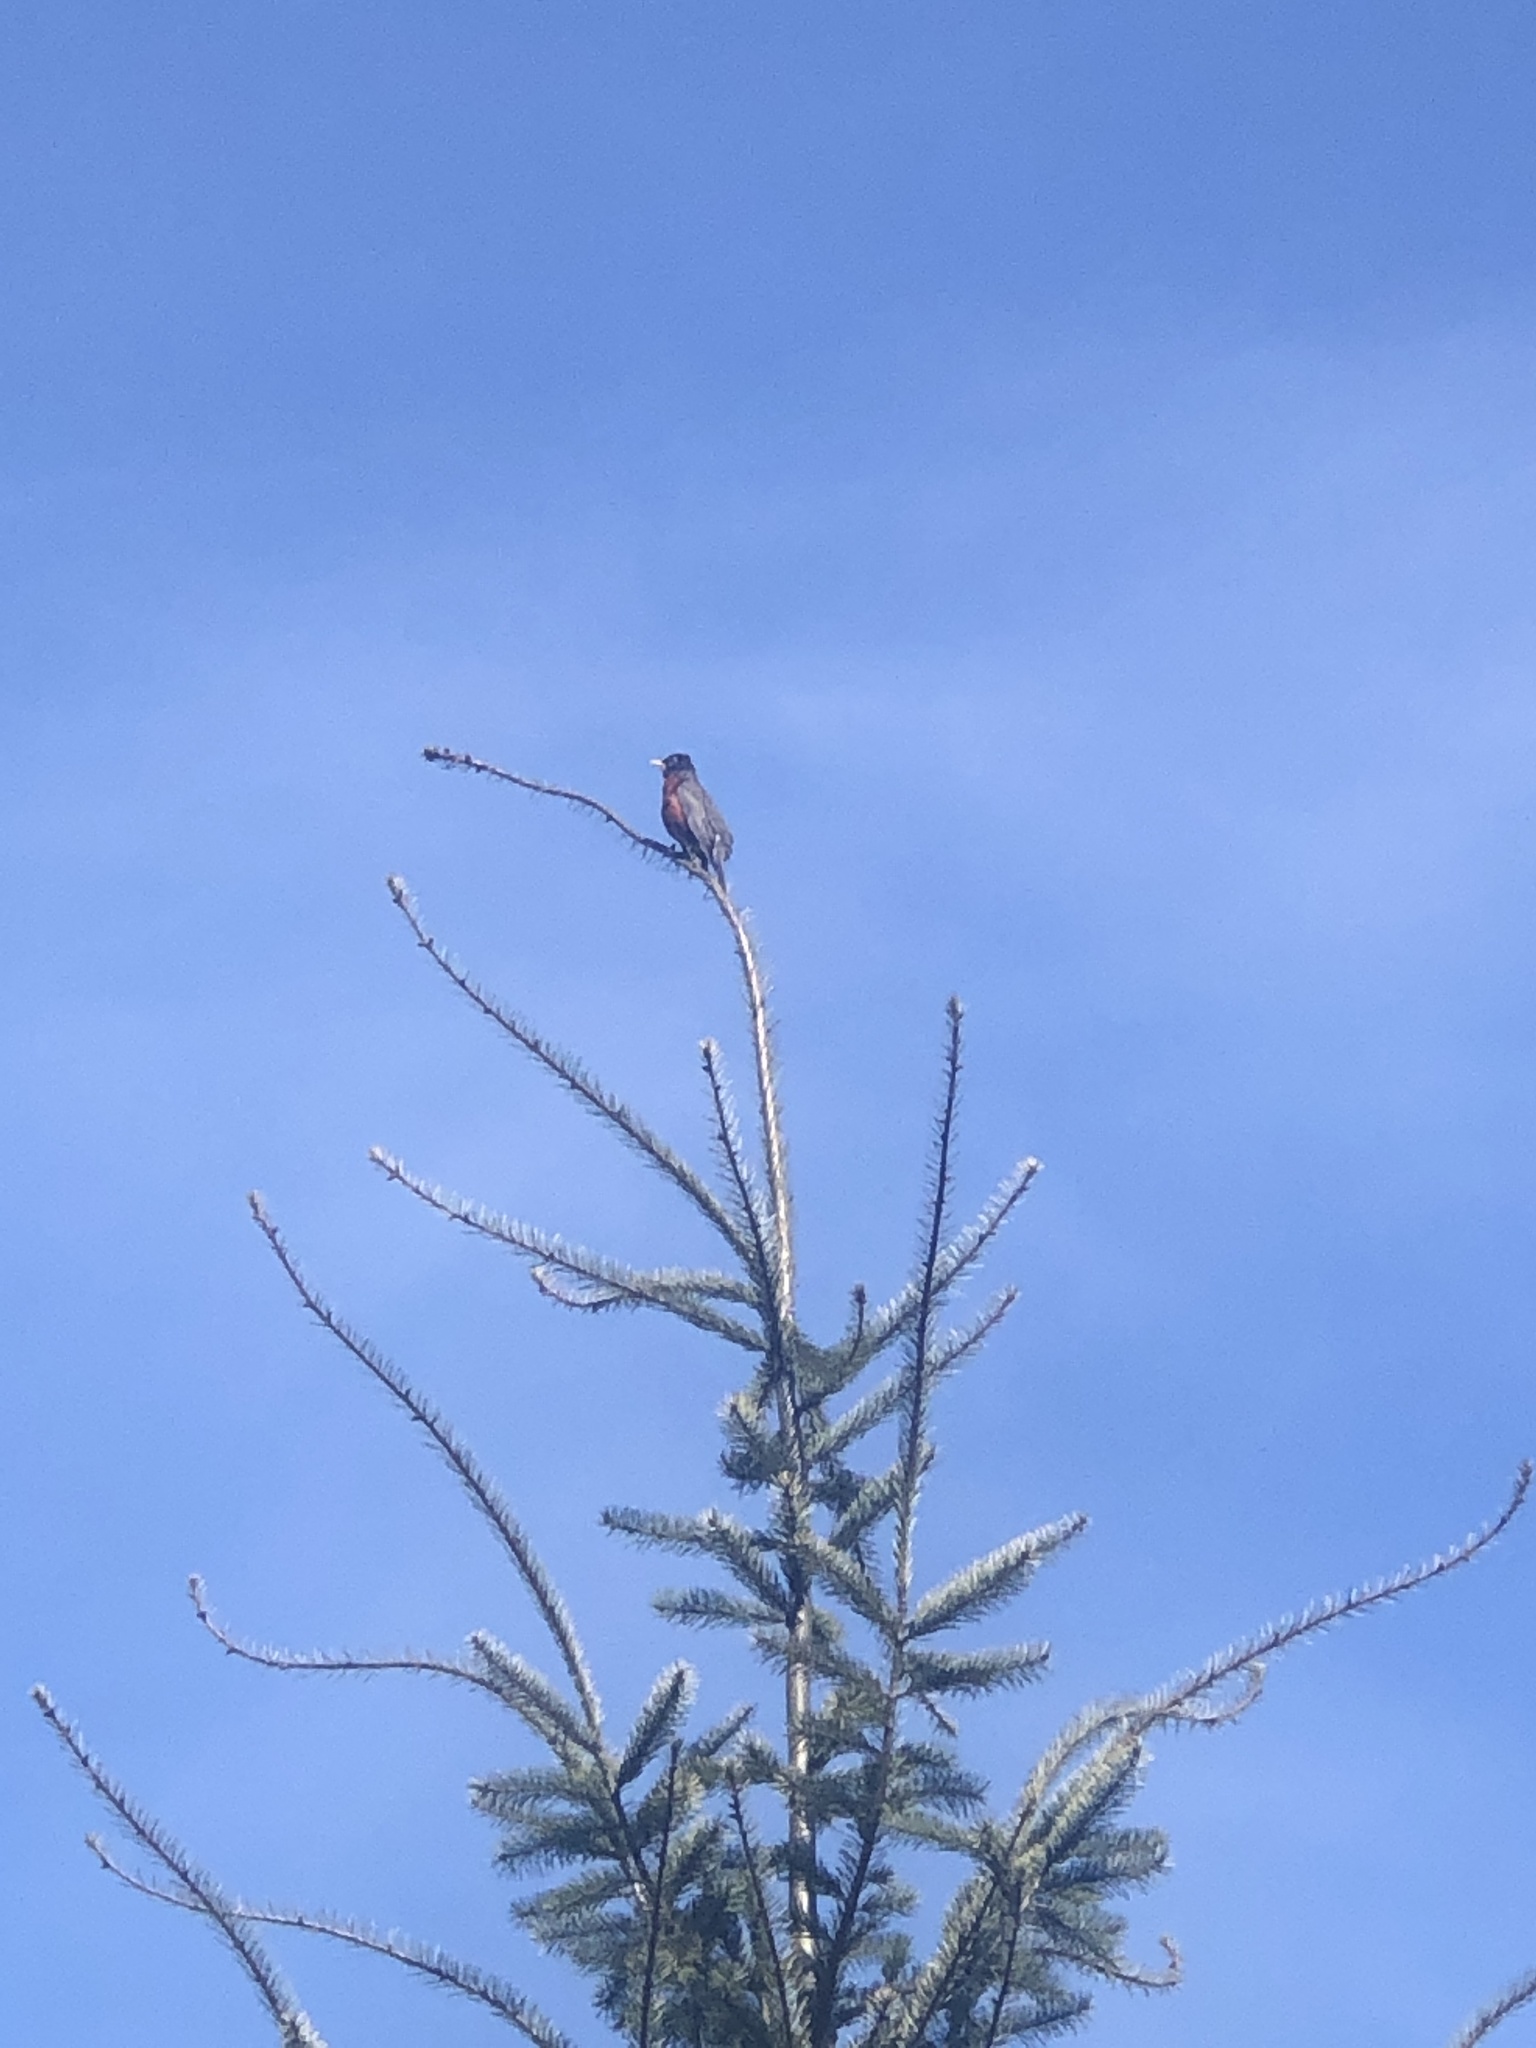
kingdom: Animalia
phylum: Chordata
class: Aves
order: Passeriformes
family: Turdidae
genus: Turdus
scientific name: Turdus migratorius
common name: American robin
